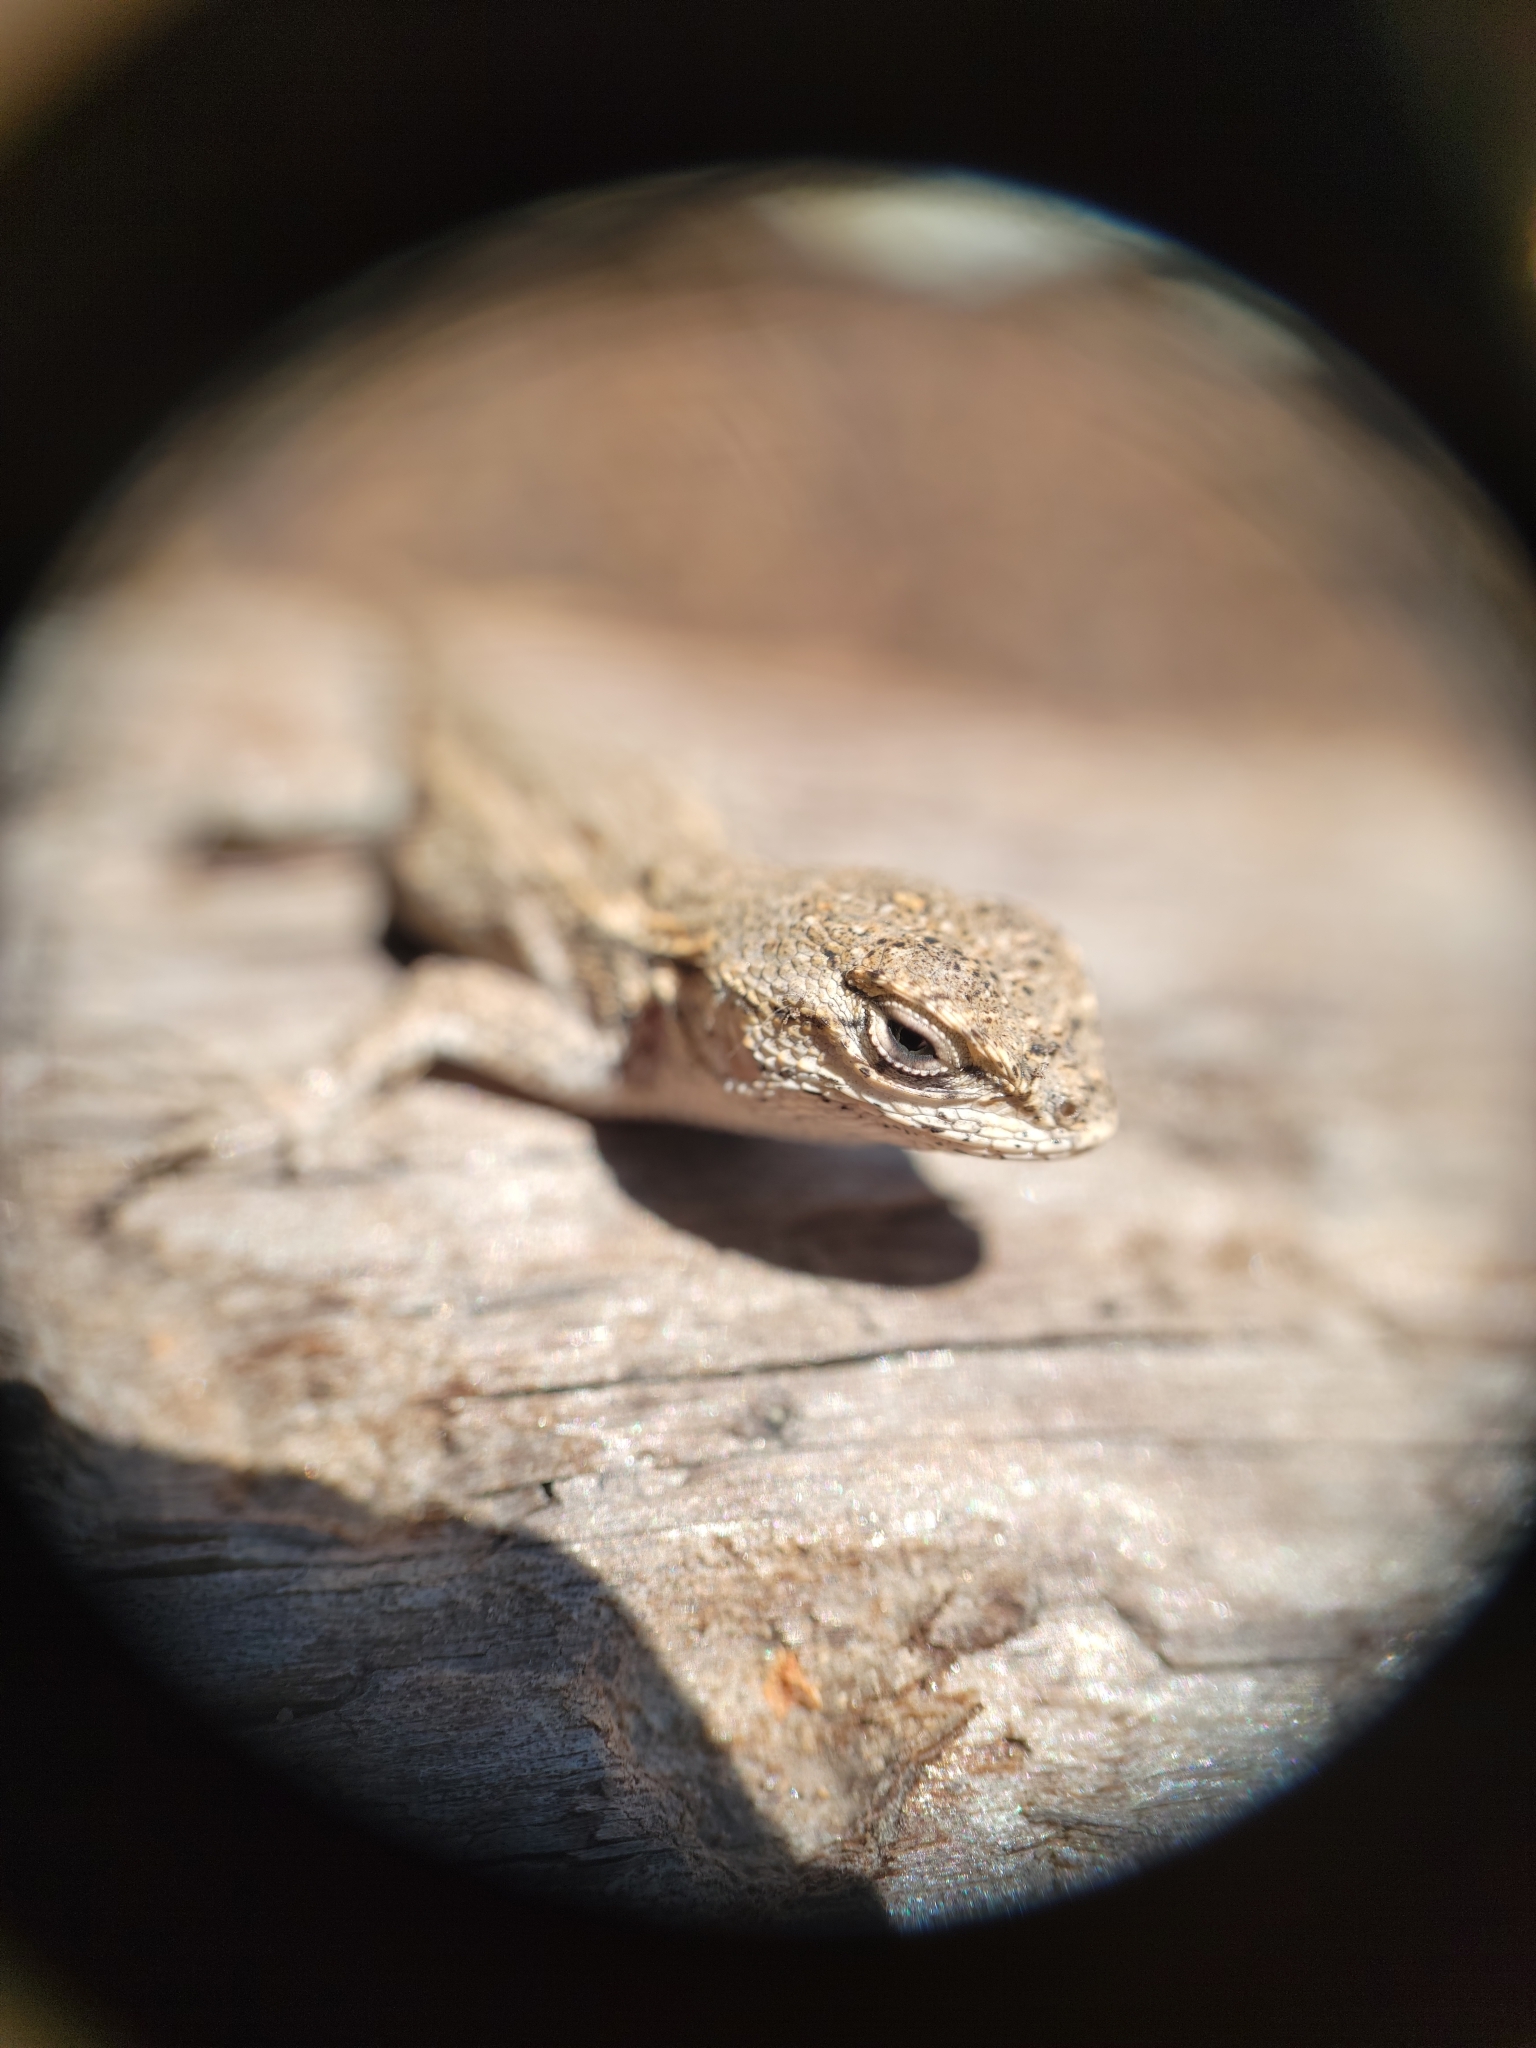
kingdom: Animalia
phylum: Chordata
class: Squamata
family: Phrynosomatidae
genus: Sceloporus
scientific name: Sceloporus occidentalis
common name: Western fence lizard
